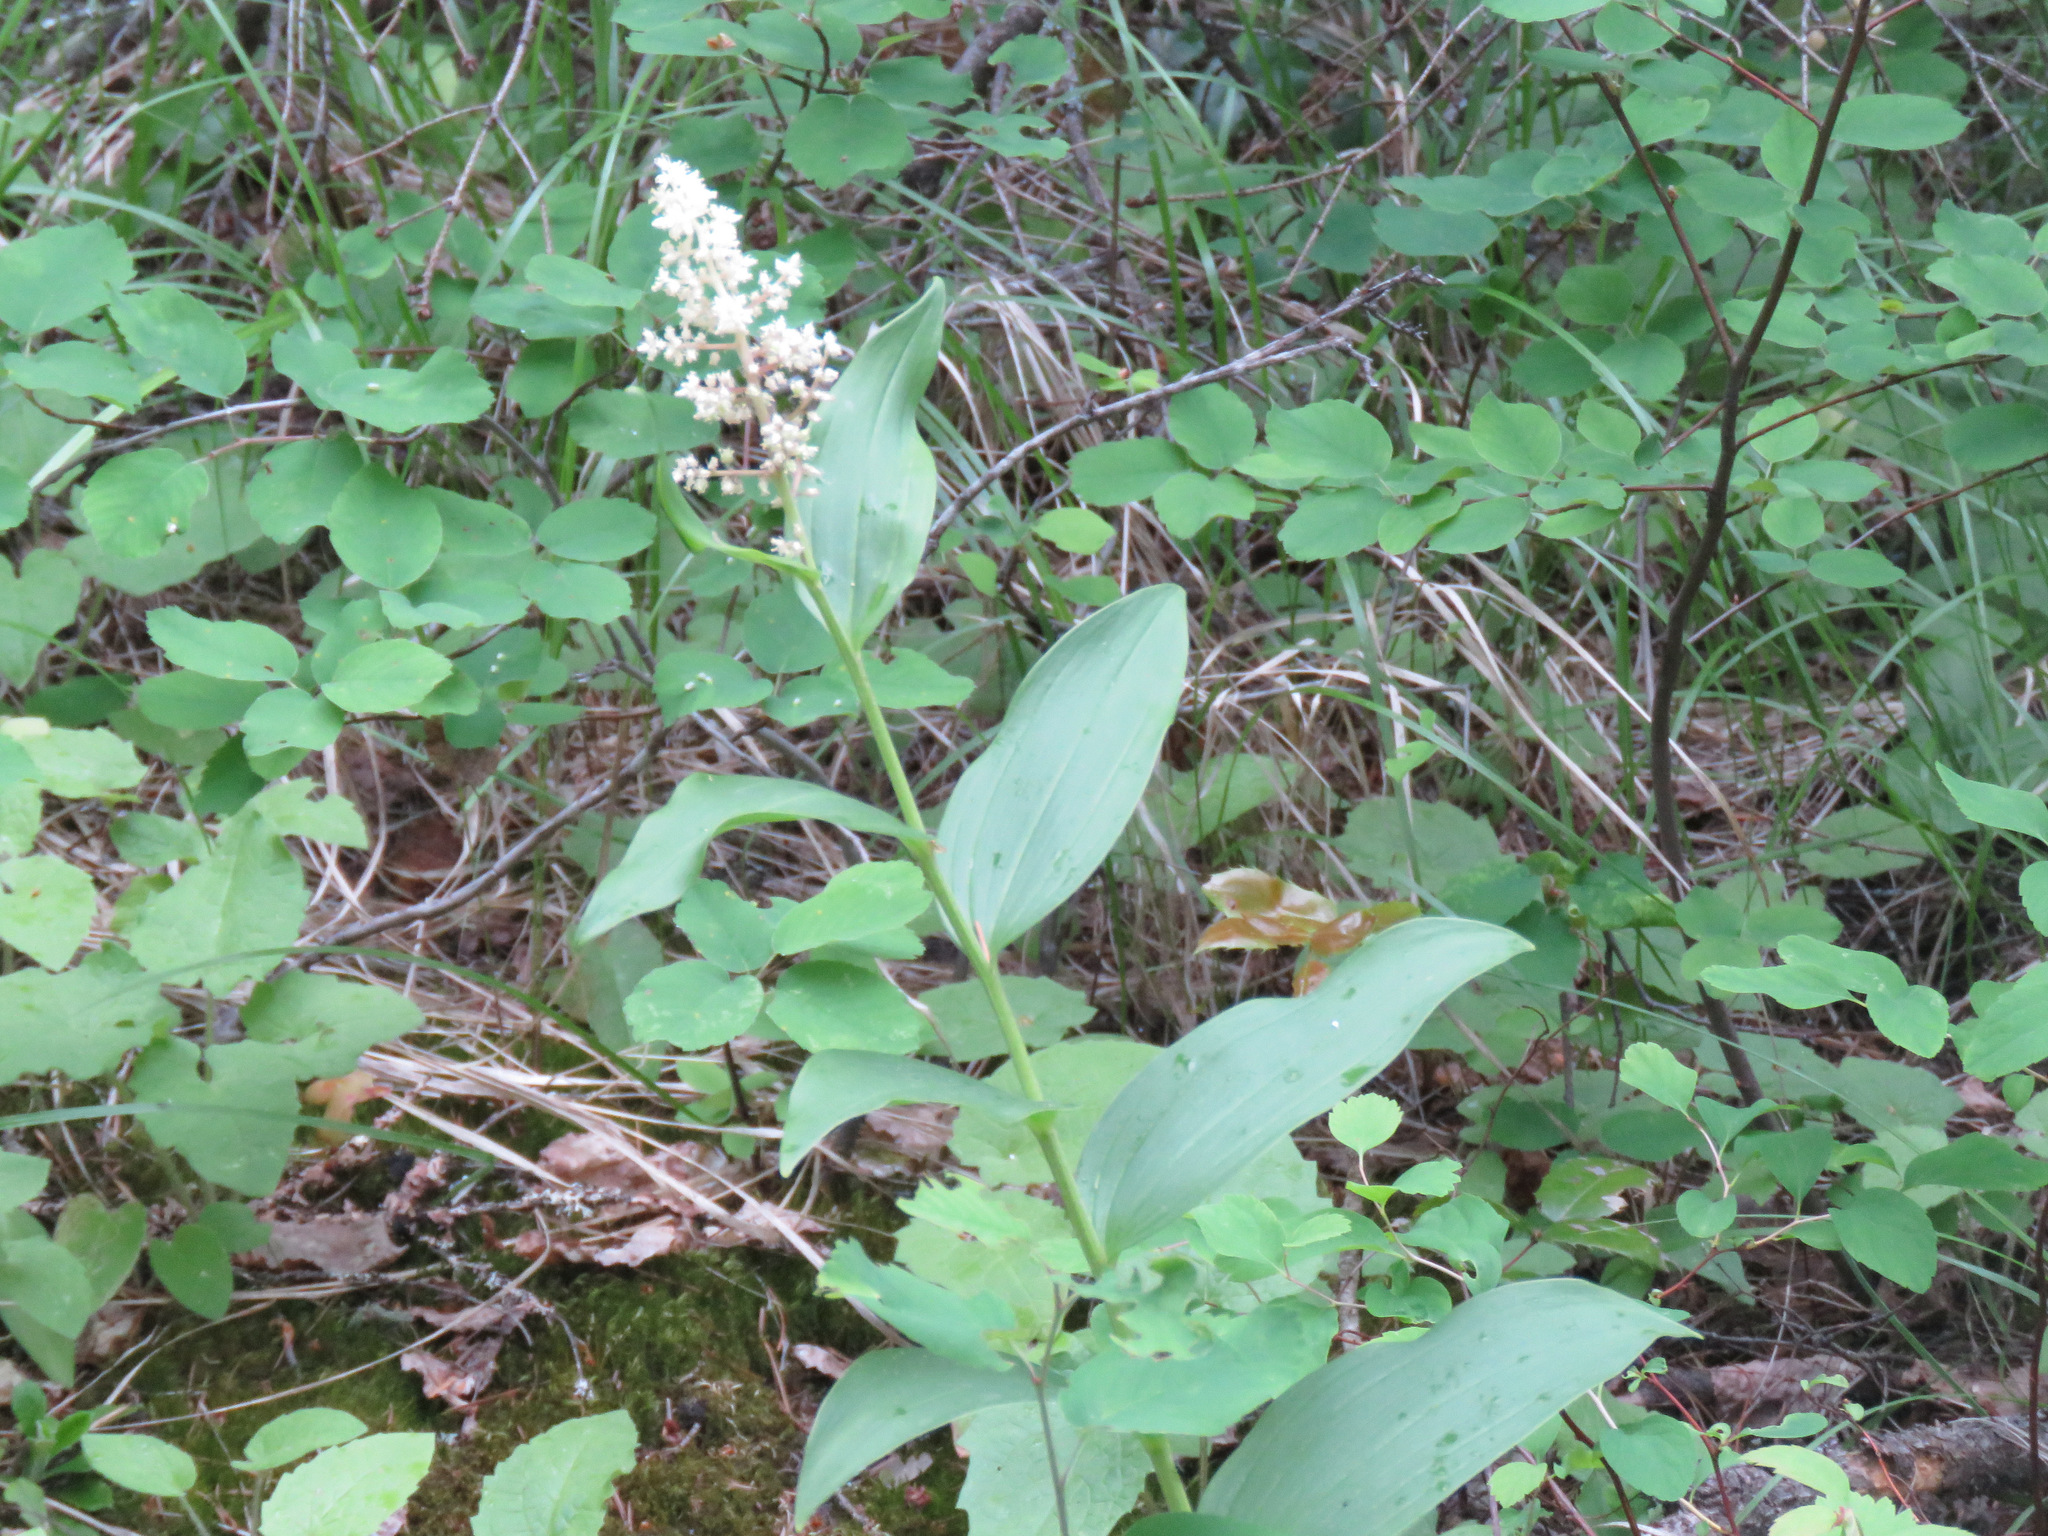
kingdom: Plantae
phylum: Tracheophyta
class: Liliopsida
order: Asparagales
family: Asparagaceae
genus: Maianthemum
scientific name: Maianthemum racemosum
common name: False spikenard
